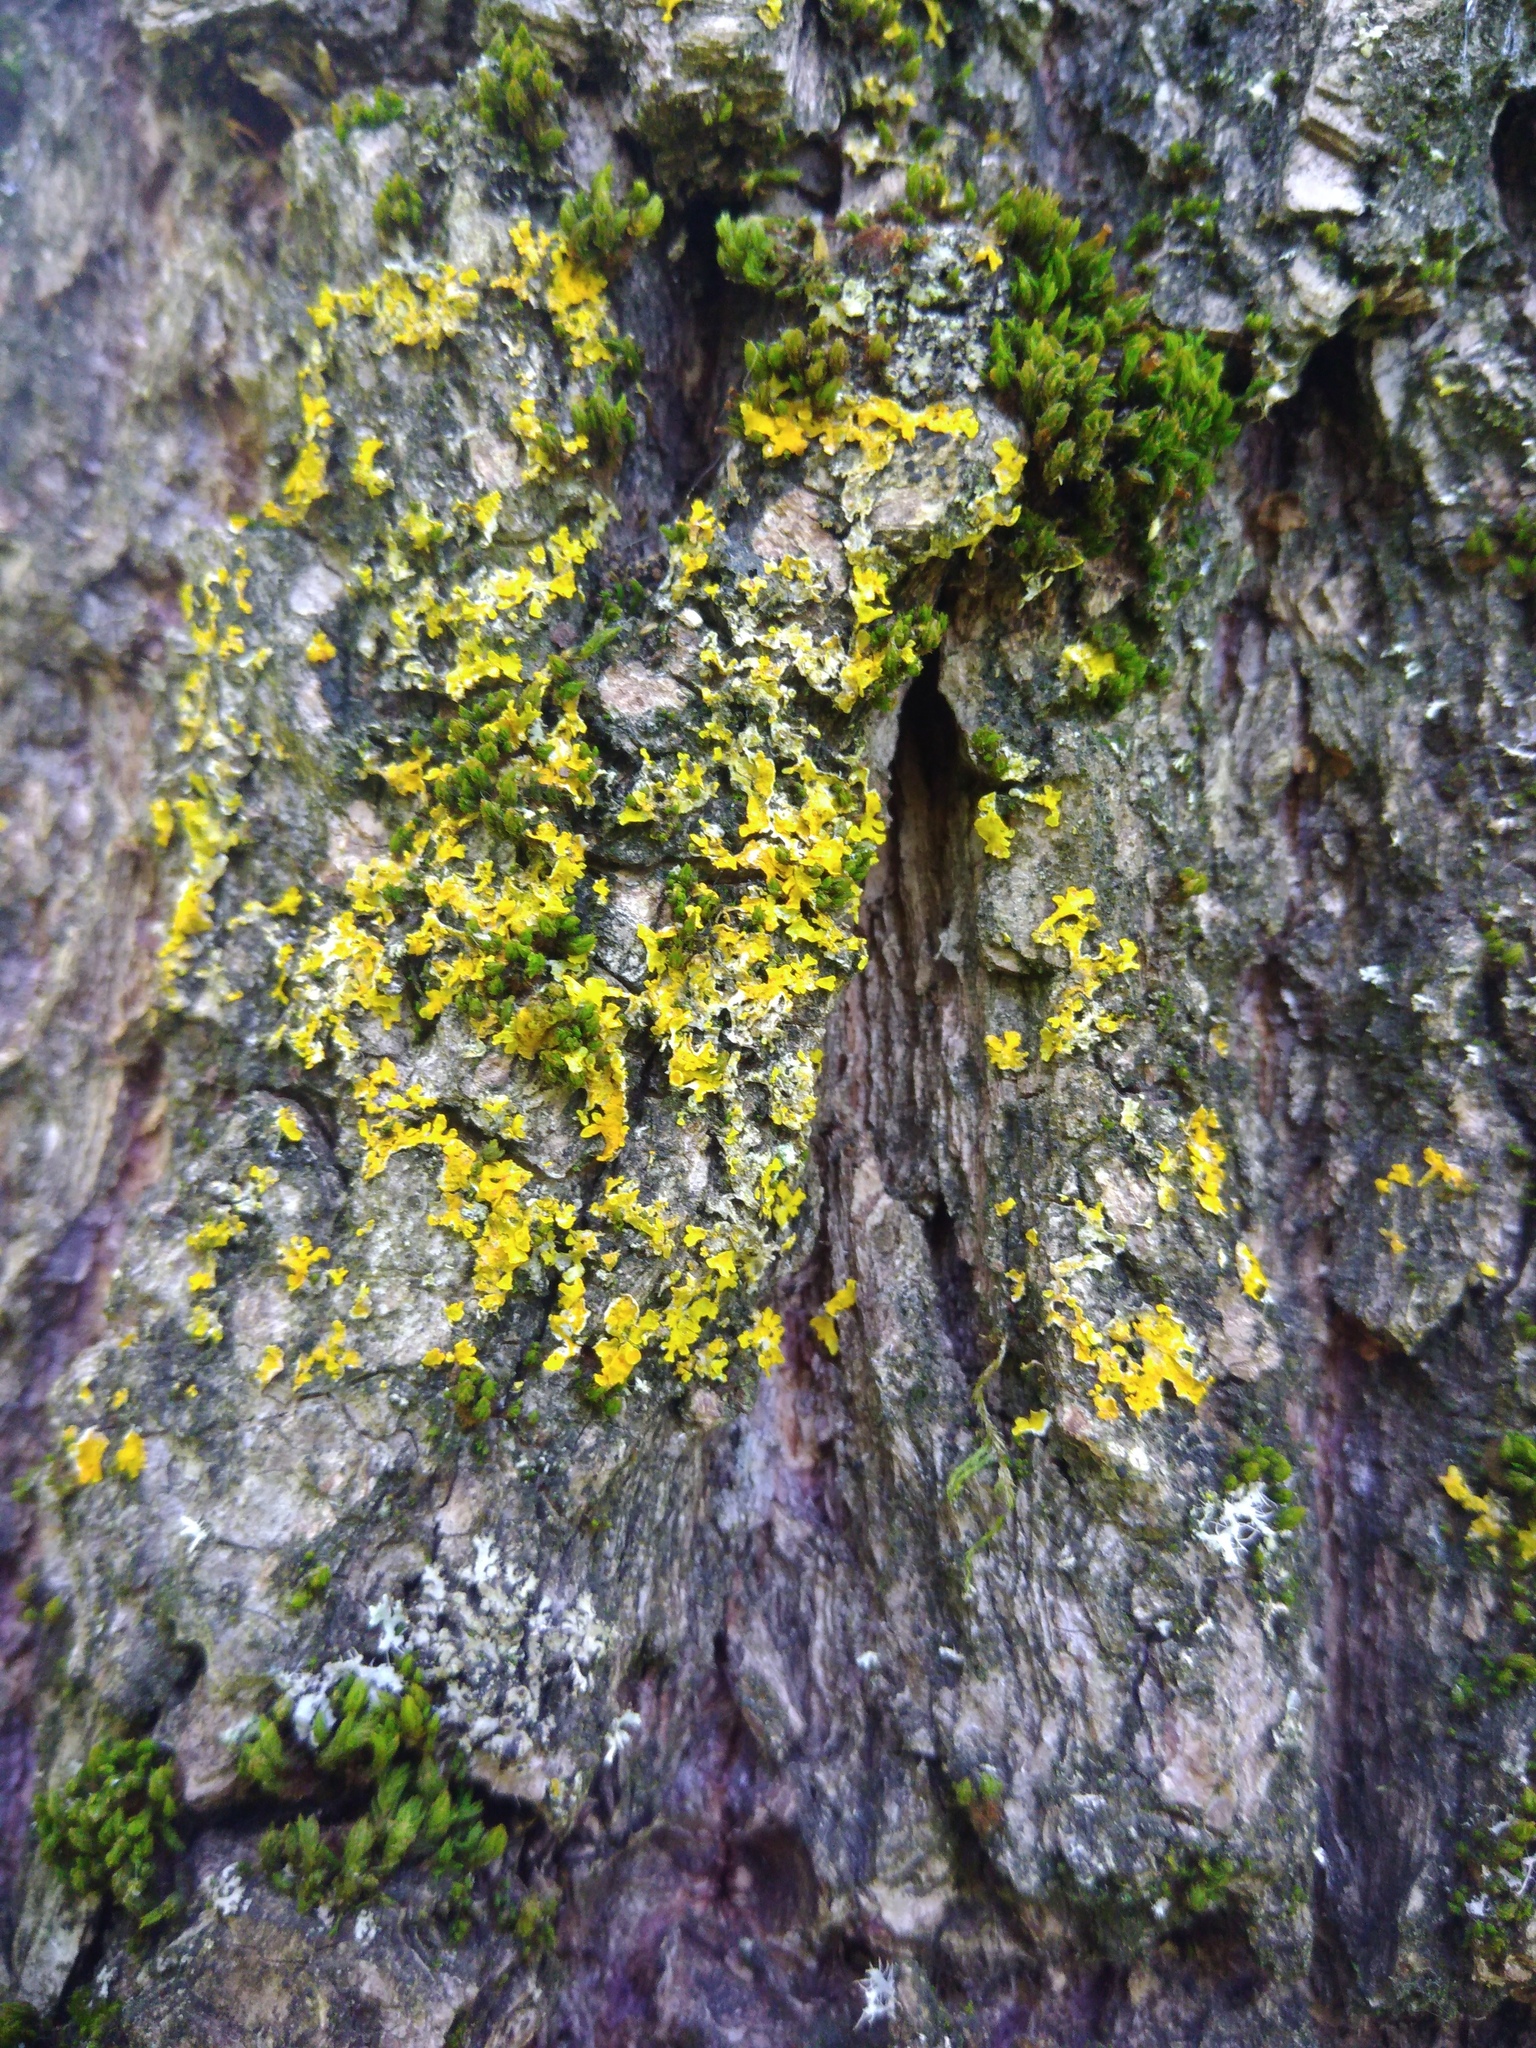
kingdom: Fungi
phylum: Ascomycota
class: Lecanoromycetes
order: Teloschistales
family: Teloschistaceae
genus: Xanthoria
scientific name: Xanthoria parietina
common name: Common orange lichen
